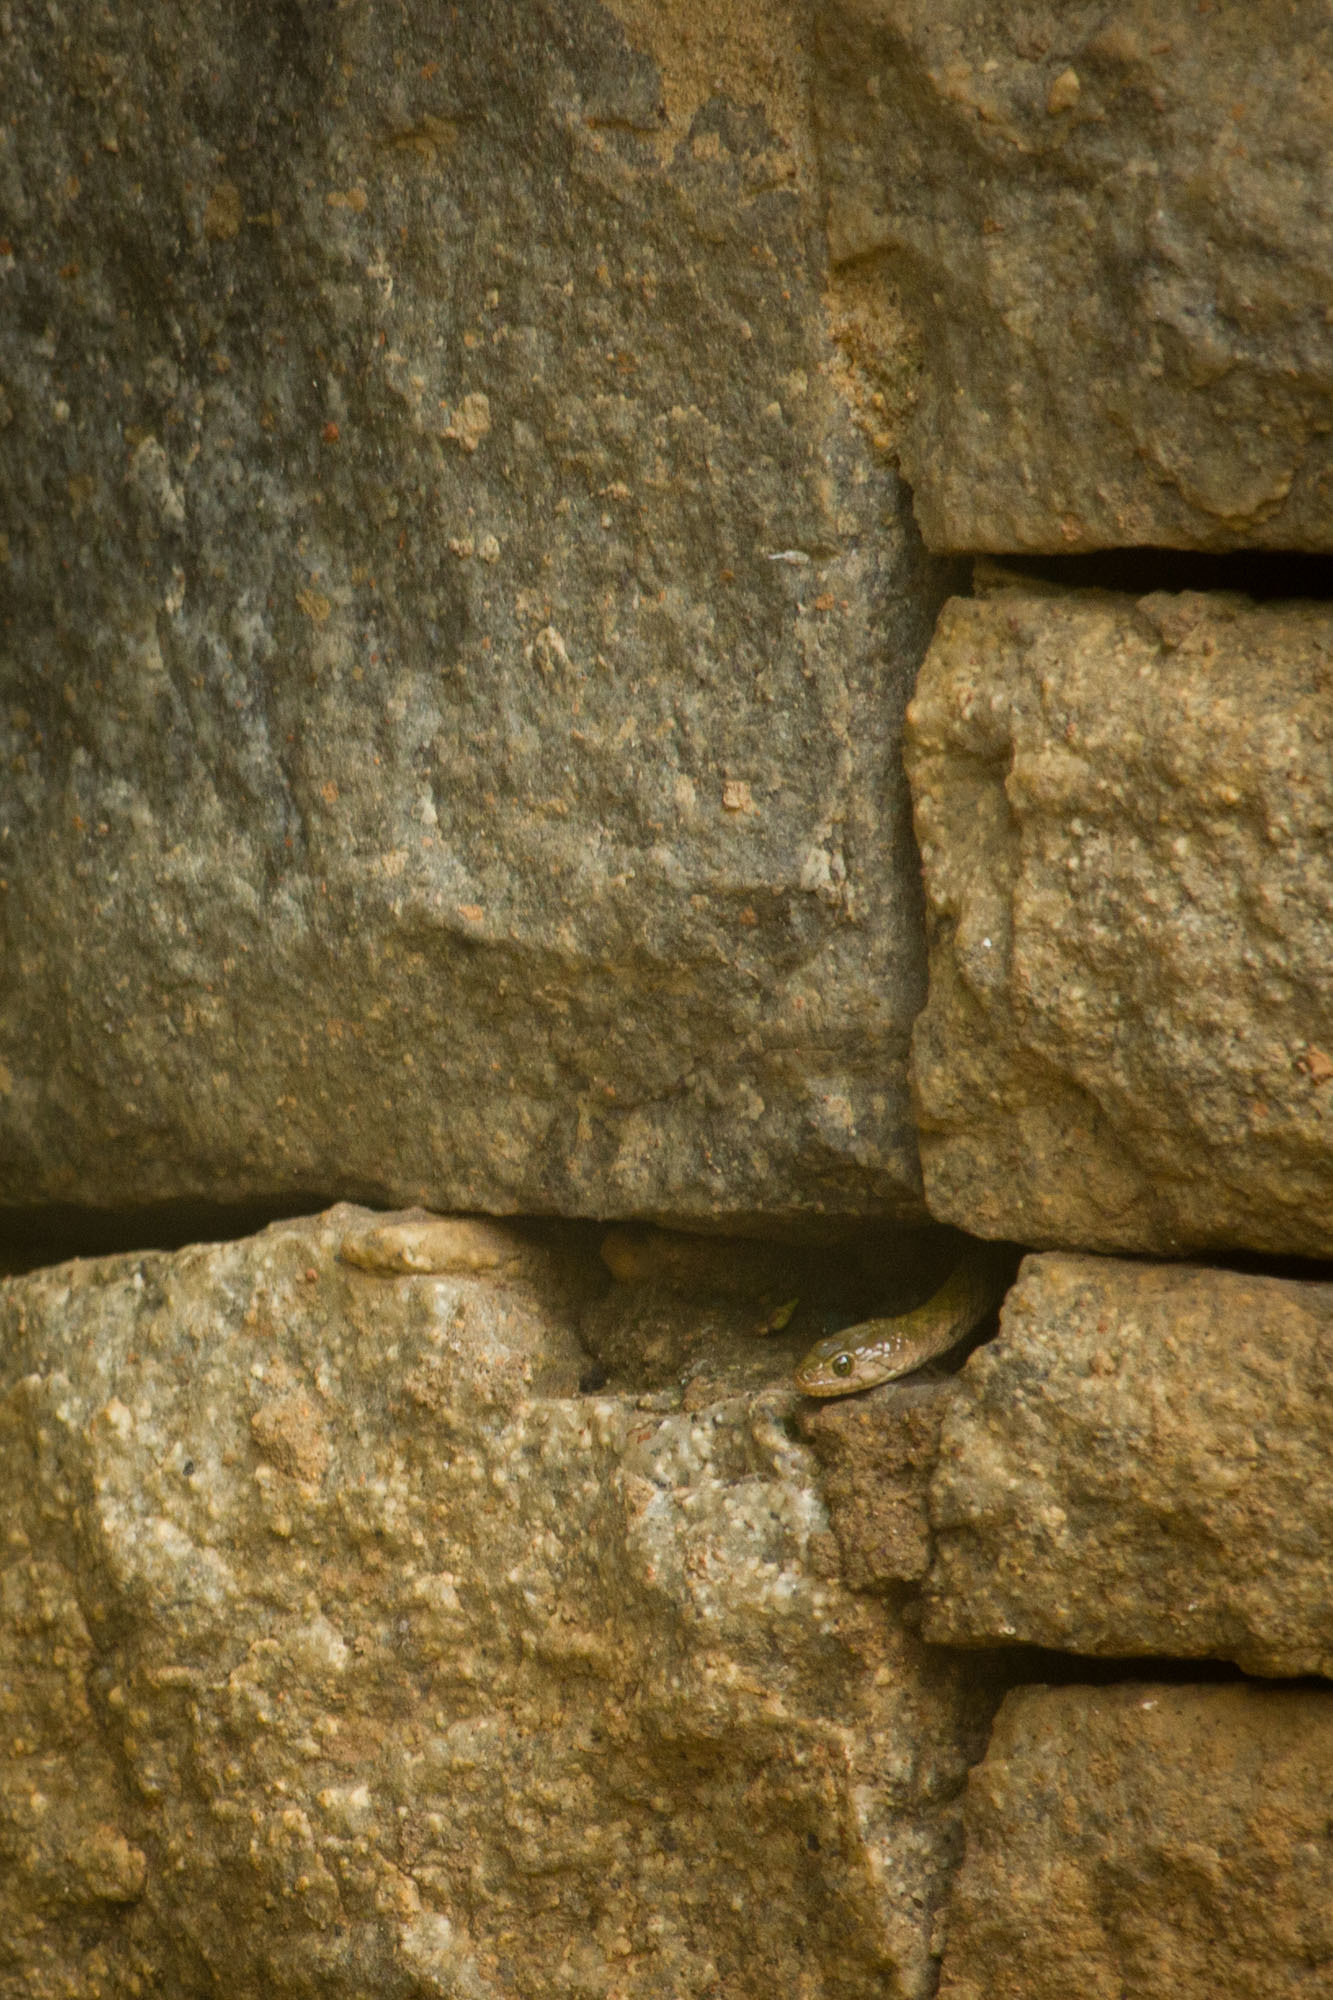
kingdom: Animalia
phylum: Chordata
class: Squamata
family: Colubridae
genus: Fowlea
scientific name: Fowlea piscator
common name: Asiatic water snake
